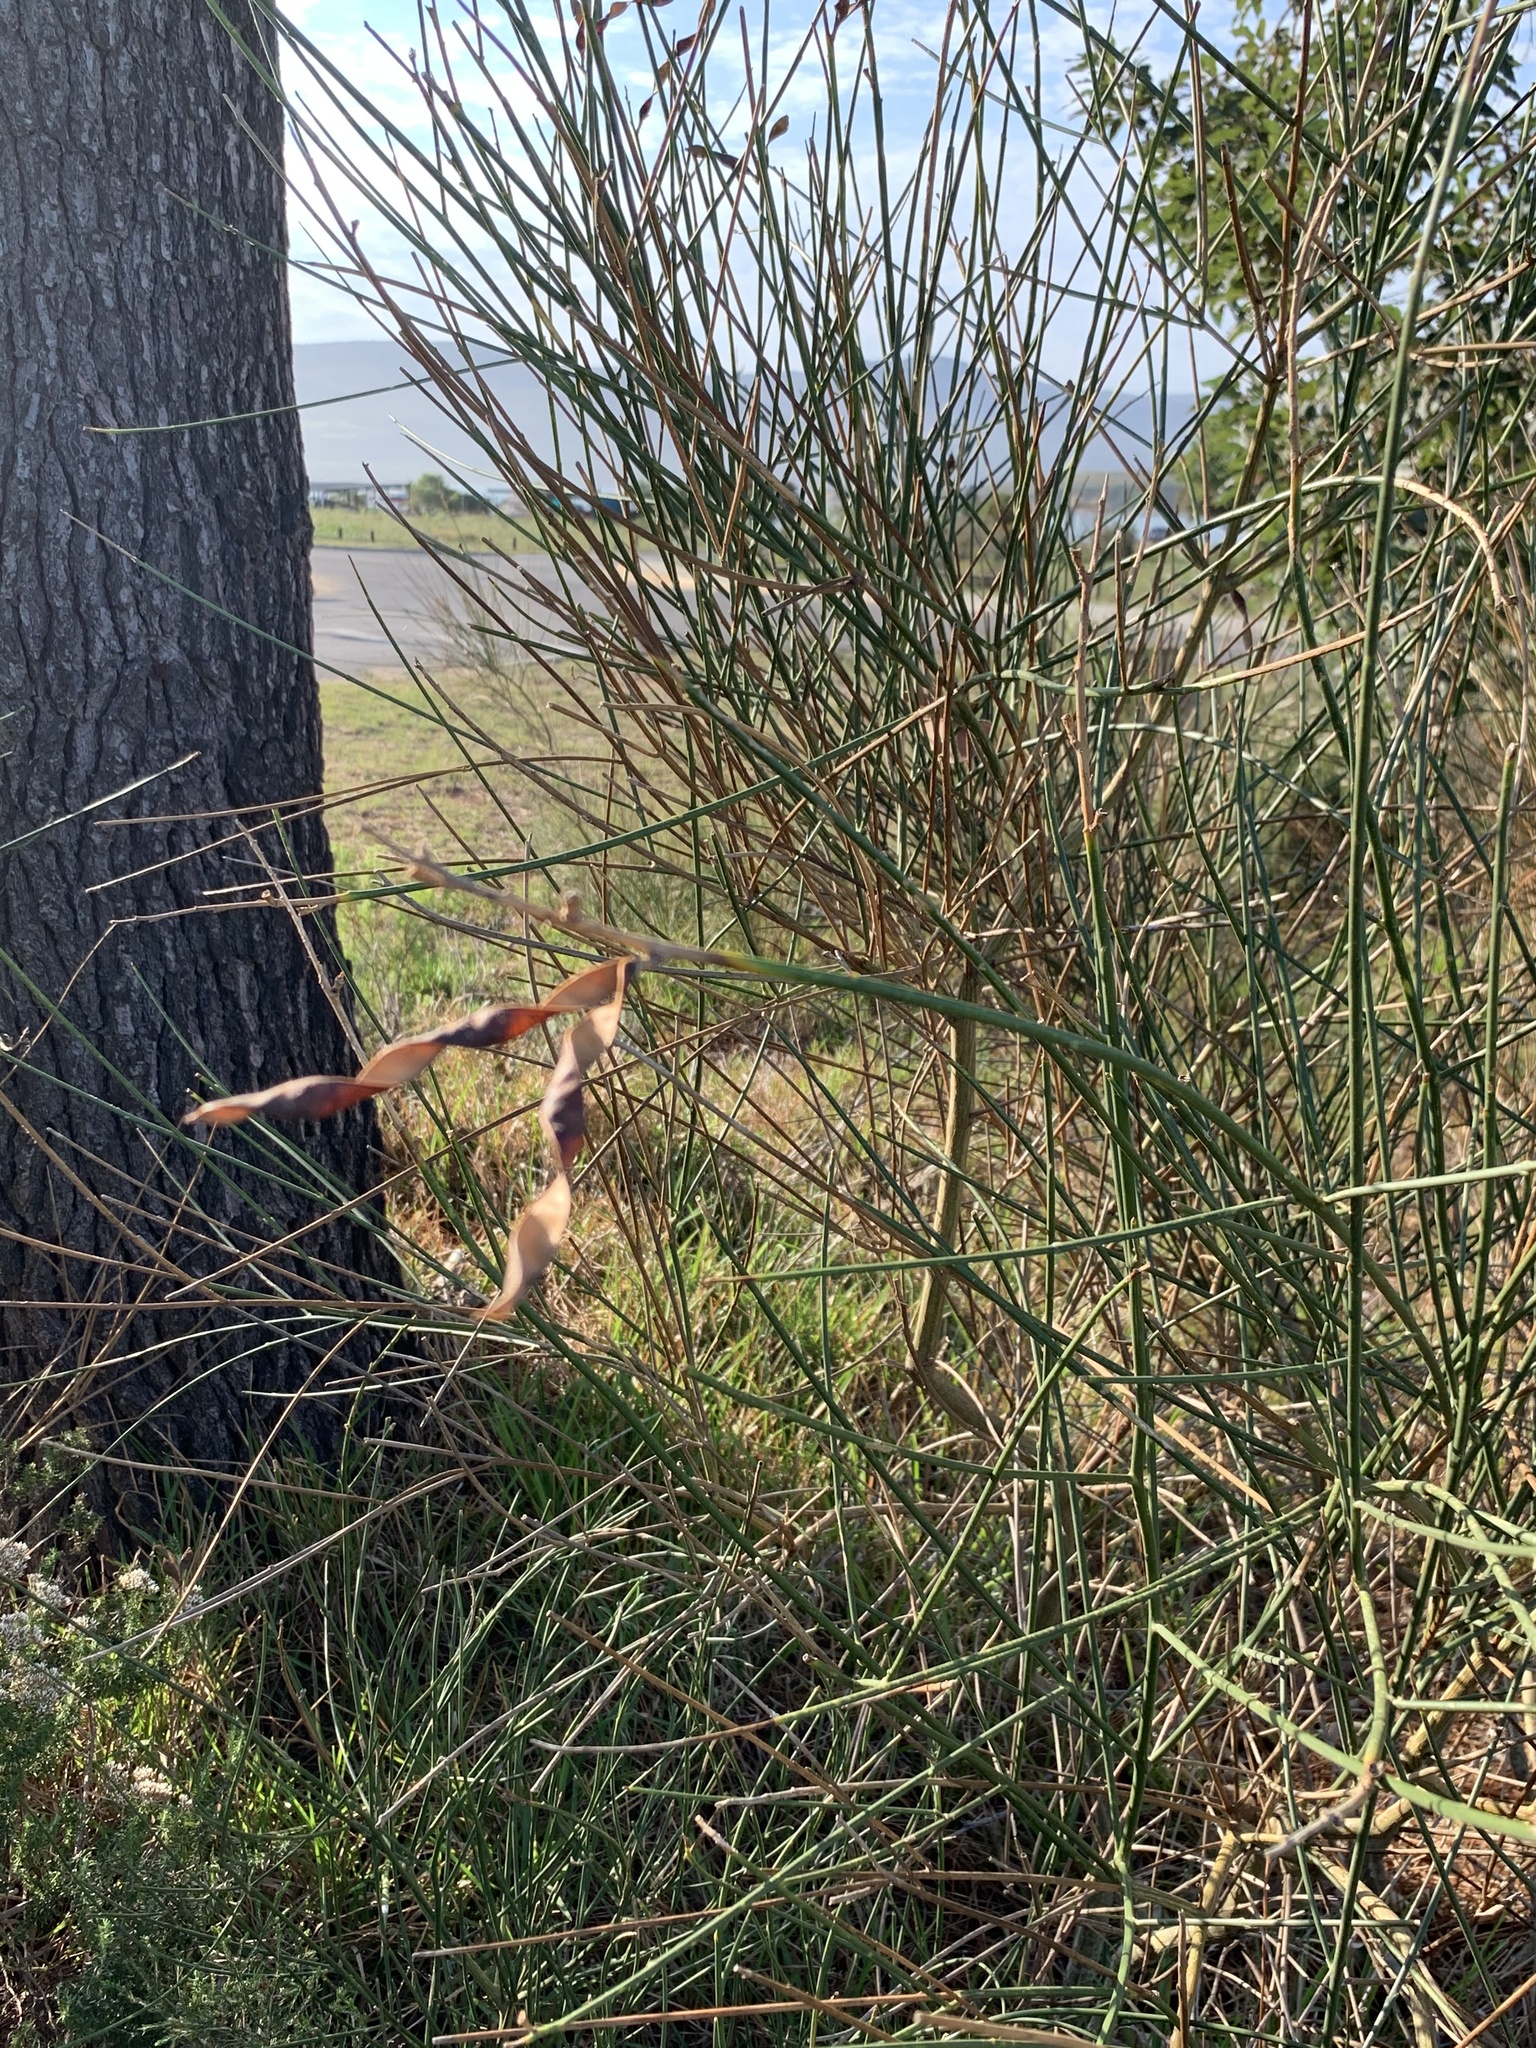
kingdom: Plantae
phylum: Tracheophyta
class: Magnoliopsida
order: Fabales
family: Fabaceae
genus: Spartium
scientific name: Spartium junceum
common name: Spanish broom
